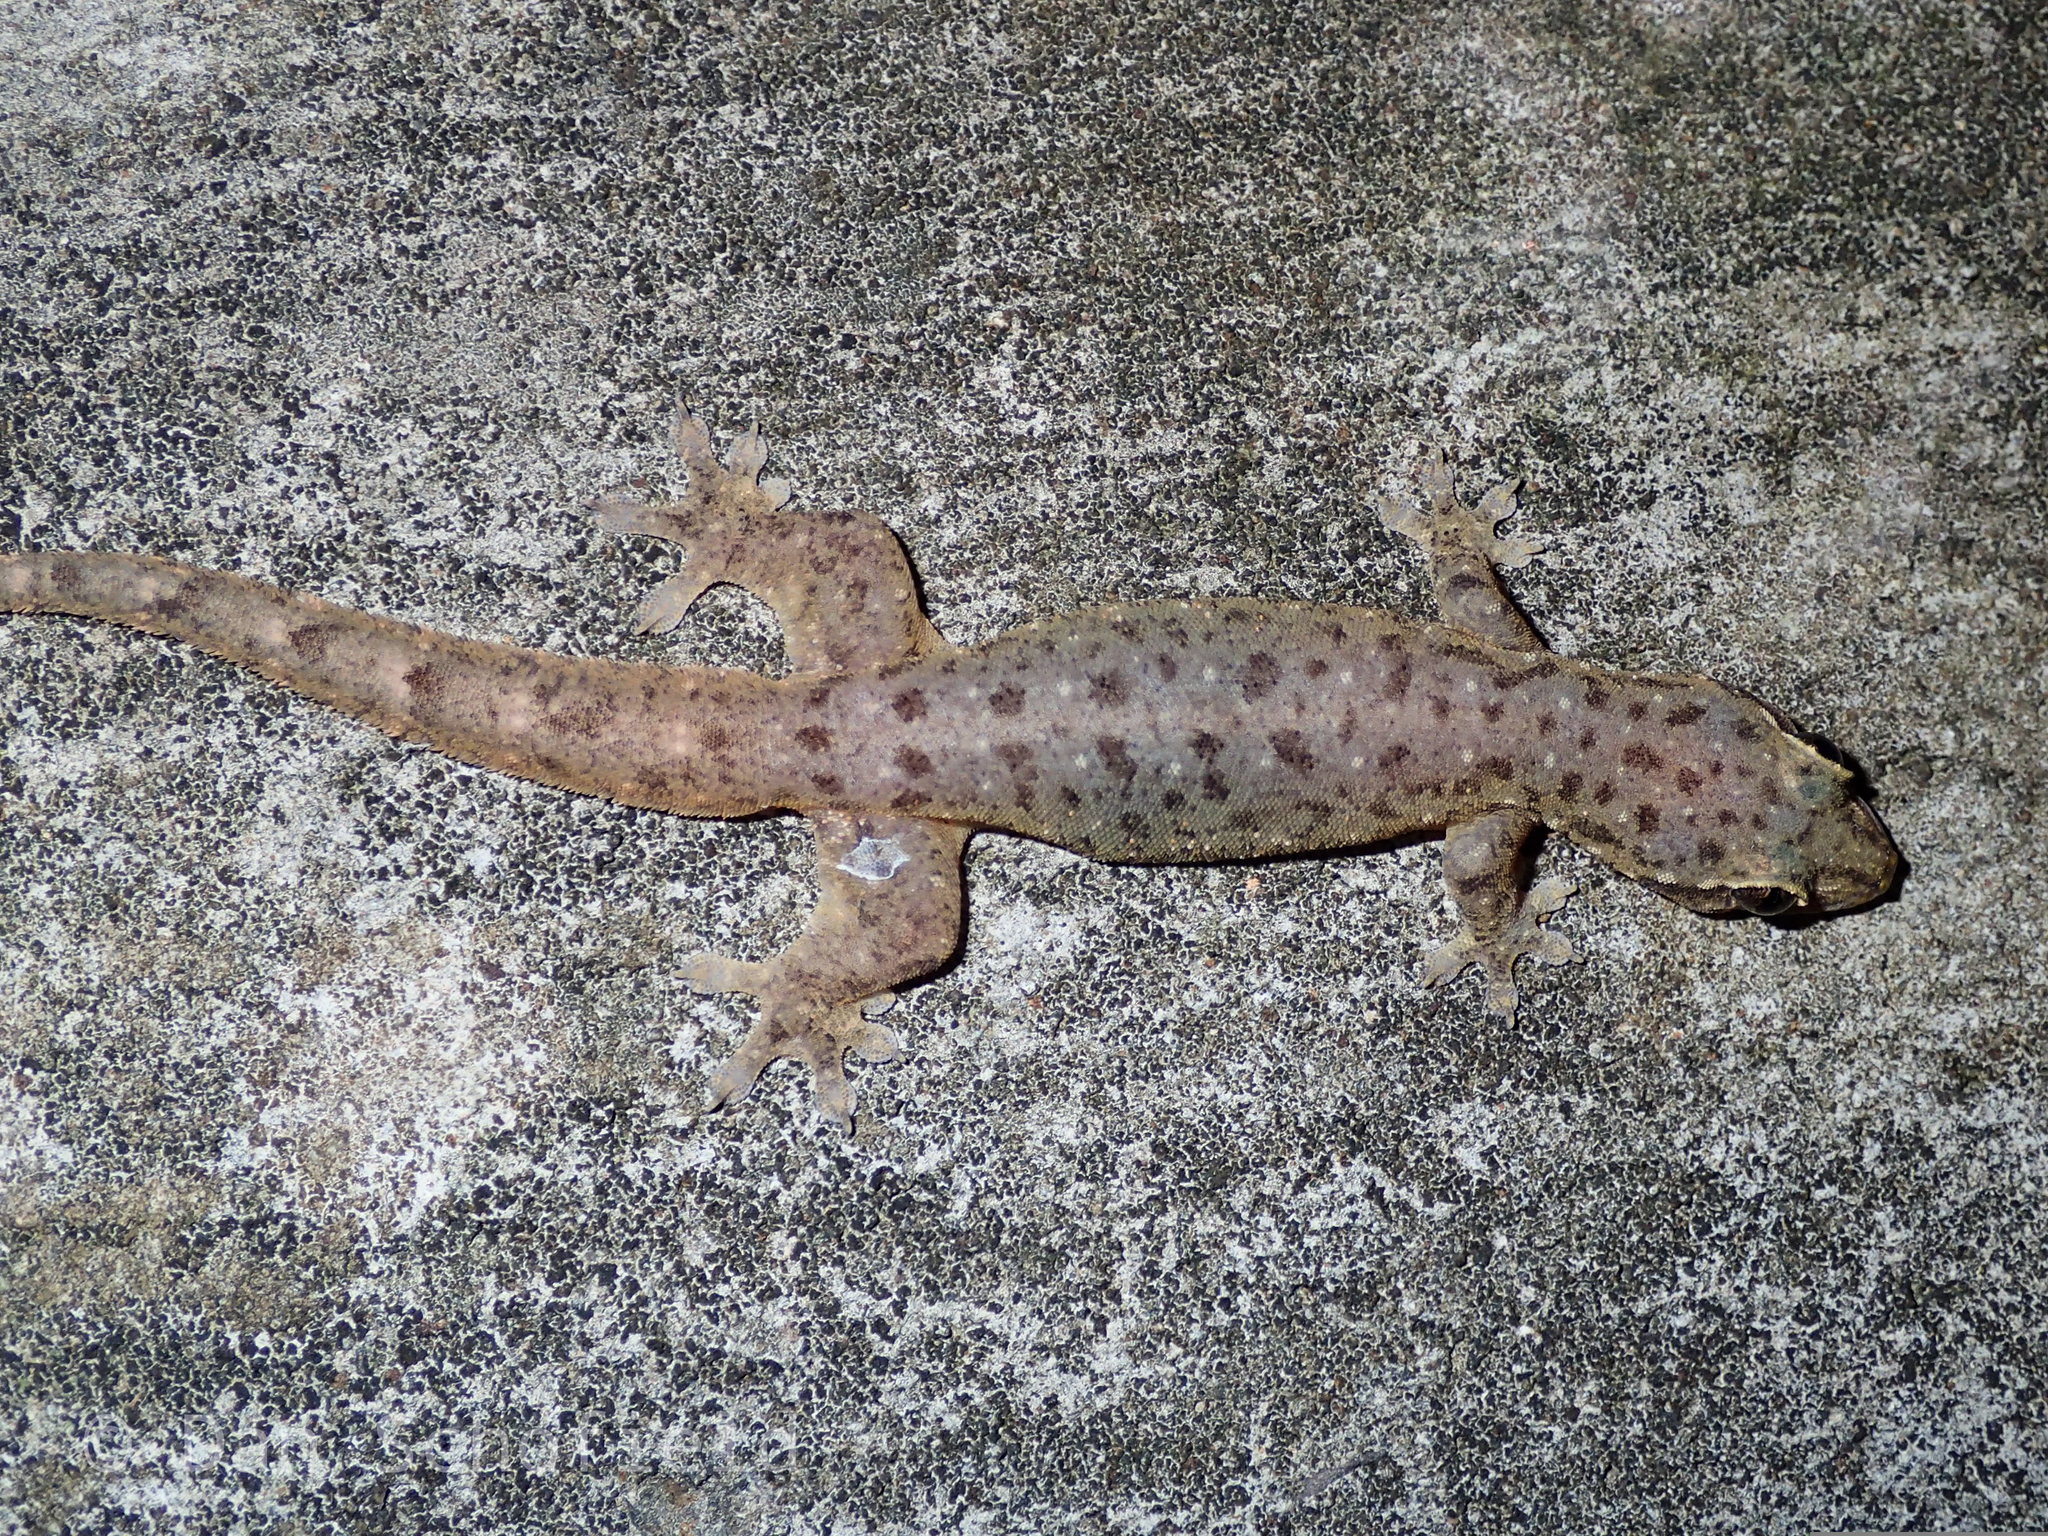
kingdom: Animalia
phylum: Chordata
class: Squamata
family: Gekkonidae
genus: Gehyra
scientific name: Gehyra mutilata
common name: Stump-toed gecko
